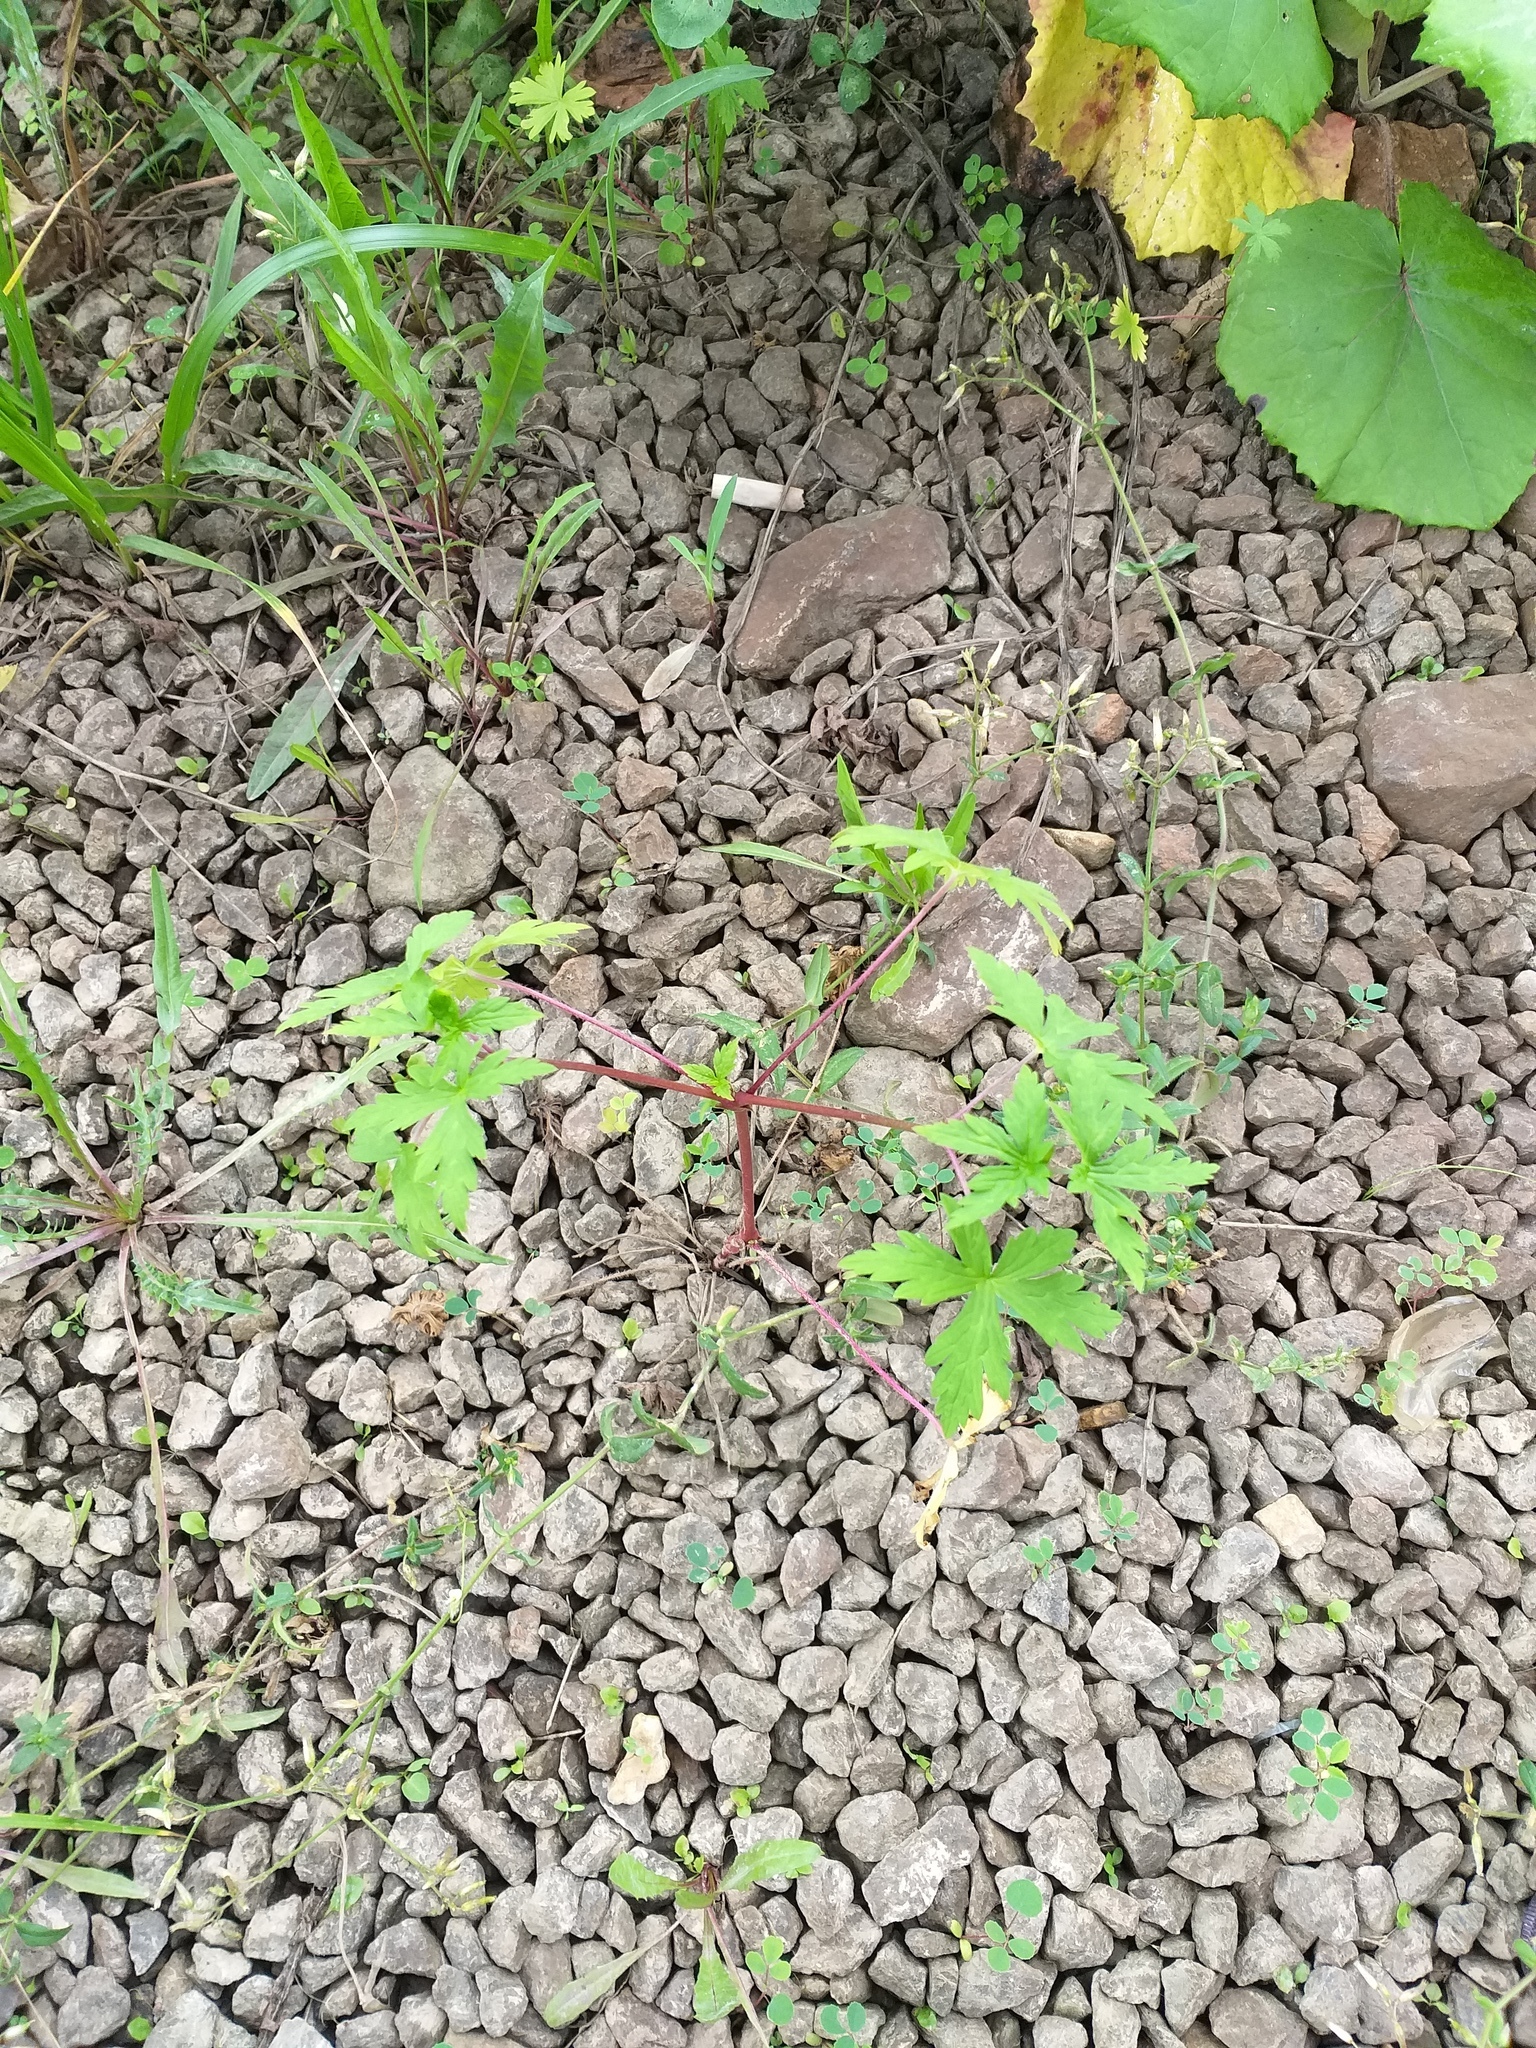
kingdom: Plantae
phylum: Tracheophyta
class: Magnoliopsida
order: Geraniales
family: Geraniaceae
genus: Geranium
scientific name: Geranium sibiricum
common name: Siberian crane's-bill
